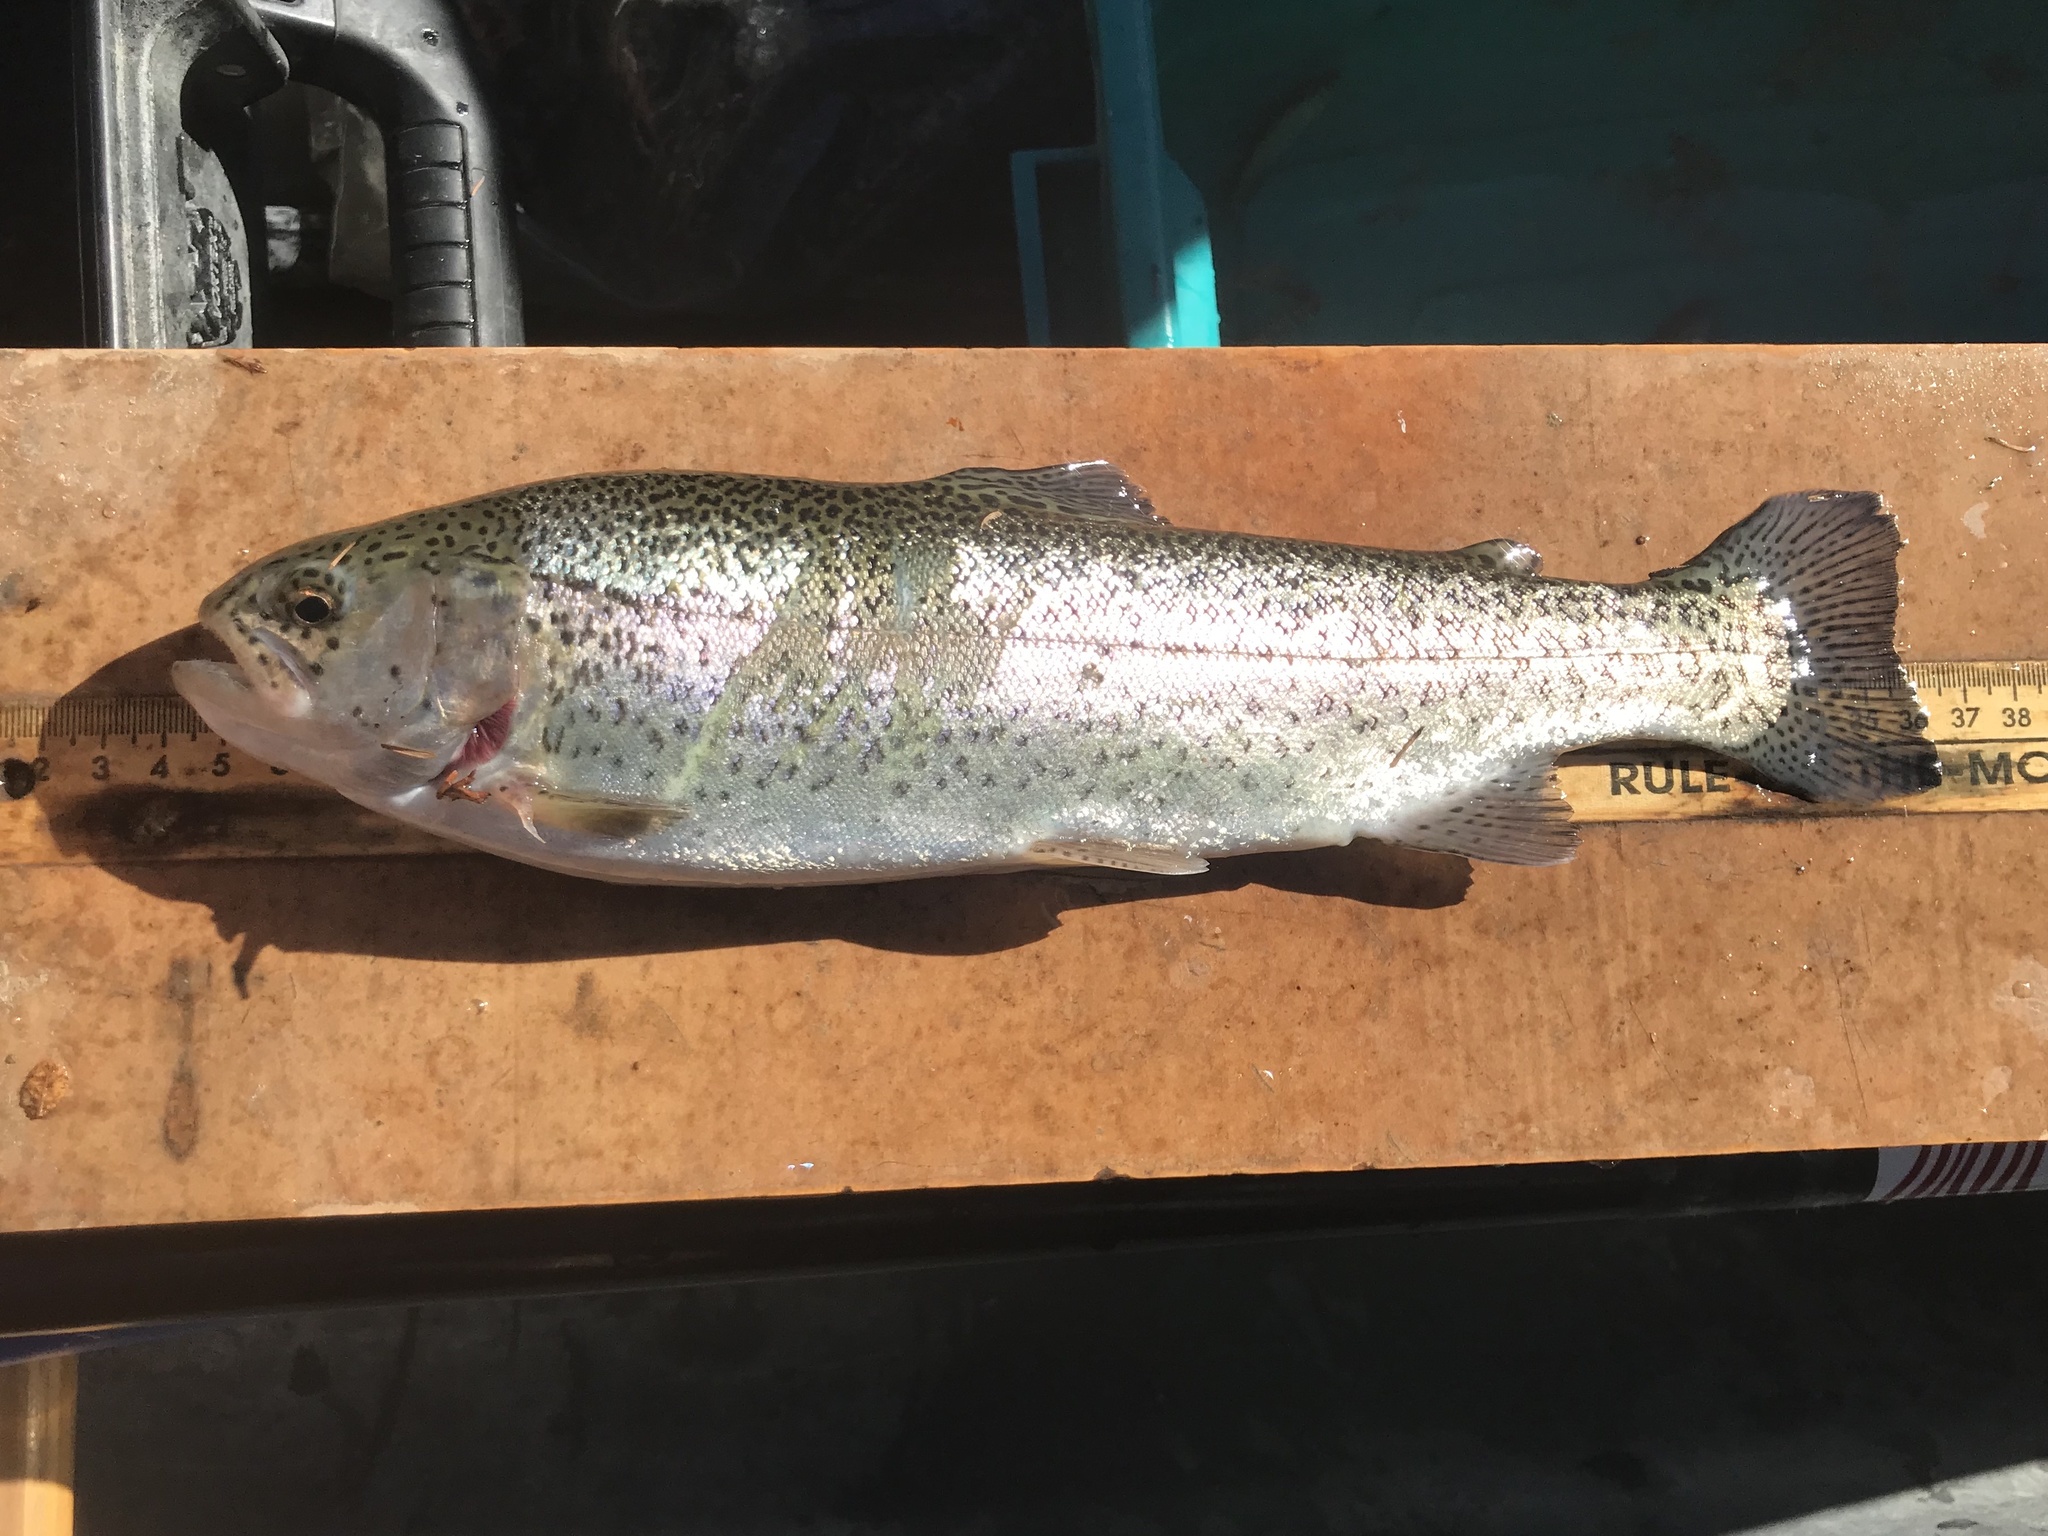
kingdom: Animalia
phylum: Chordata
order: Salmoniformes
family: Salmonidae
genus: Oncorhynchus
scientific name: Oncorhynchus mykiss
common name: Rainbow trout
